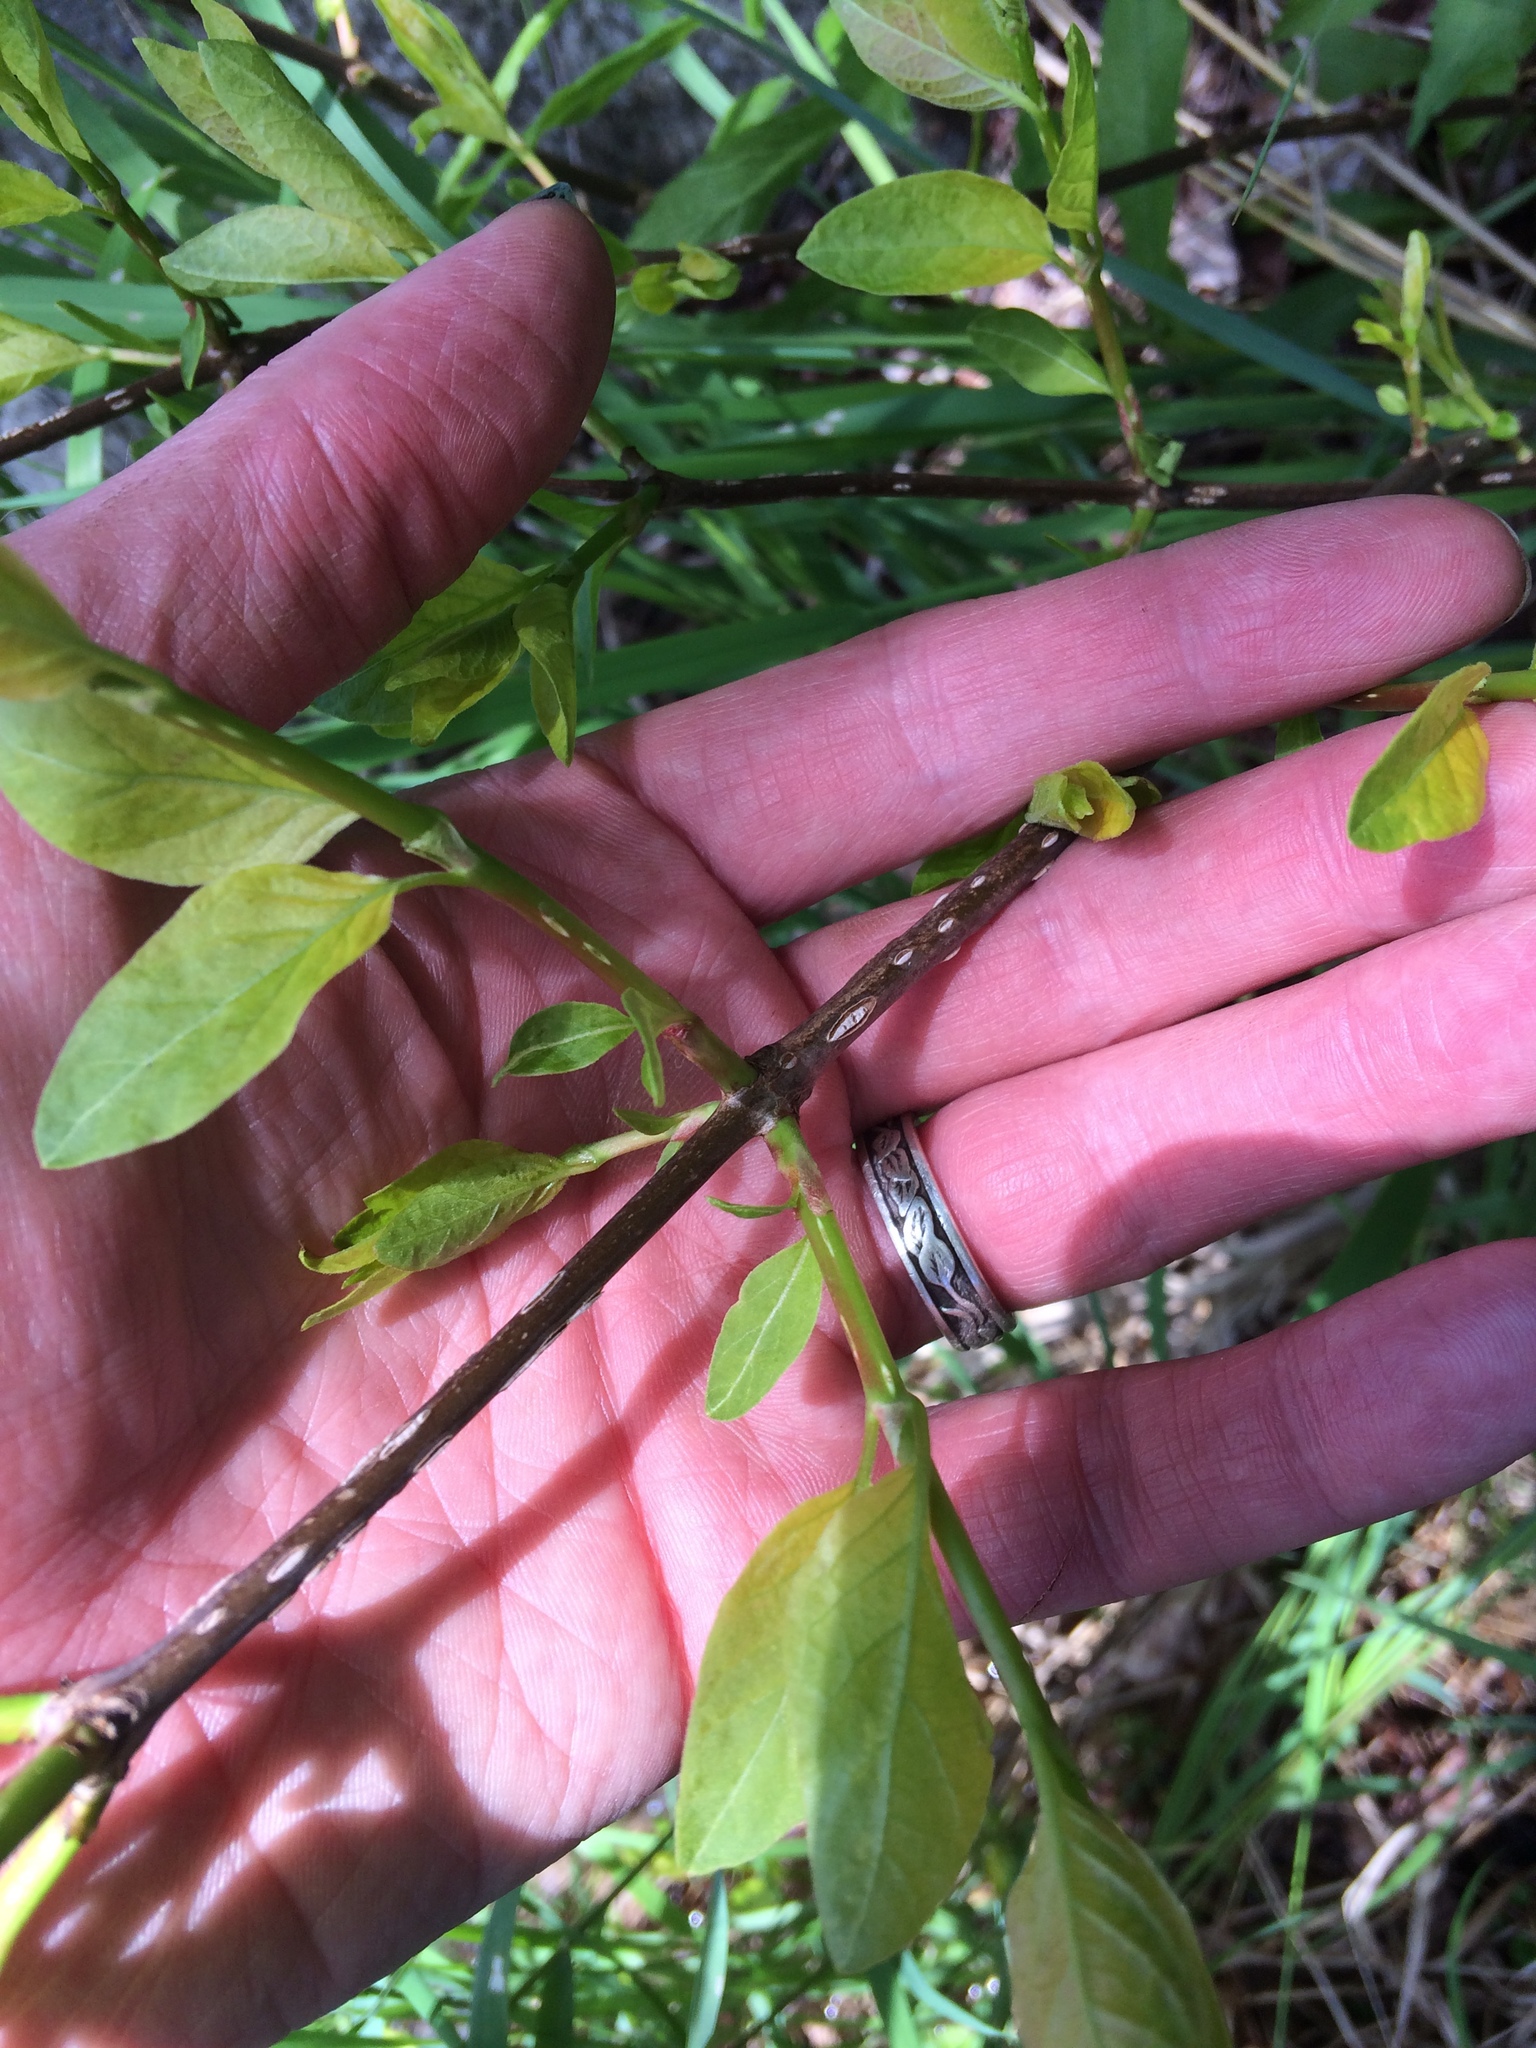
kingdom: Plantae
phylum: Tracheophyta
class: Magnoliopsida
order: Gentianales
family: Rubiaceae
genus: Cephalanthus
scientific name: Cephalanthus occidentalis
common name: Button-willow
